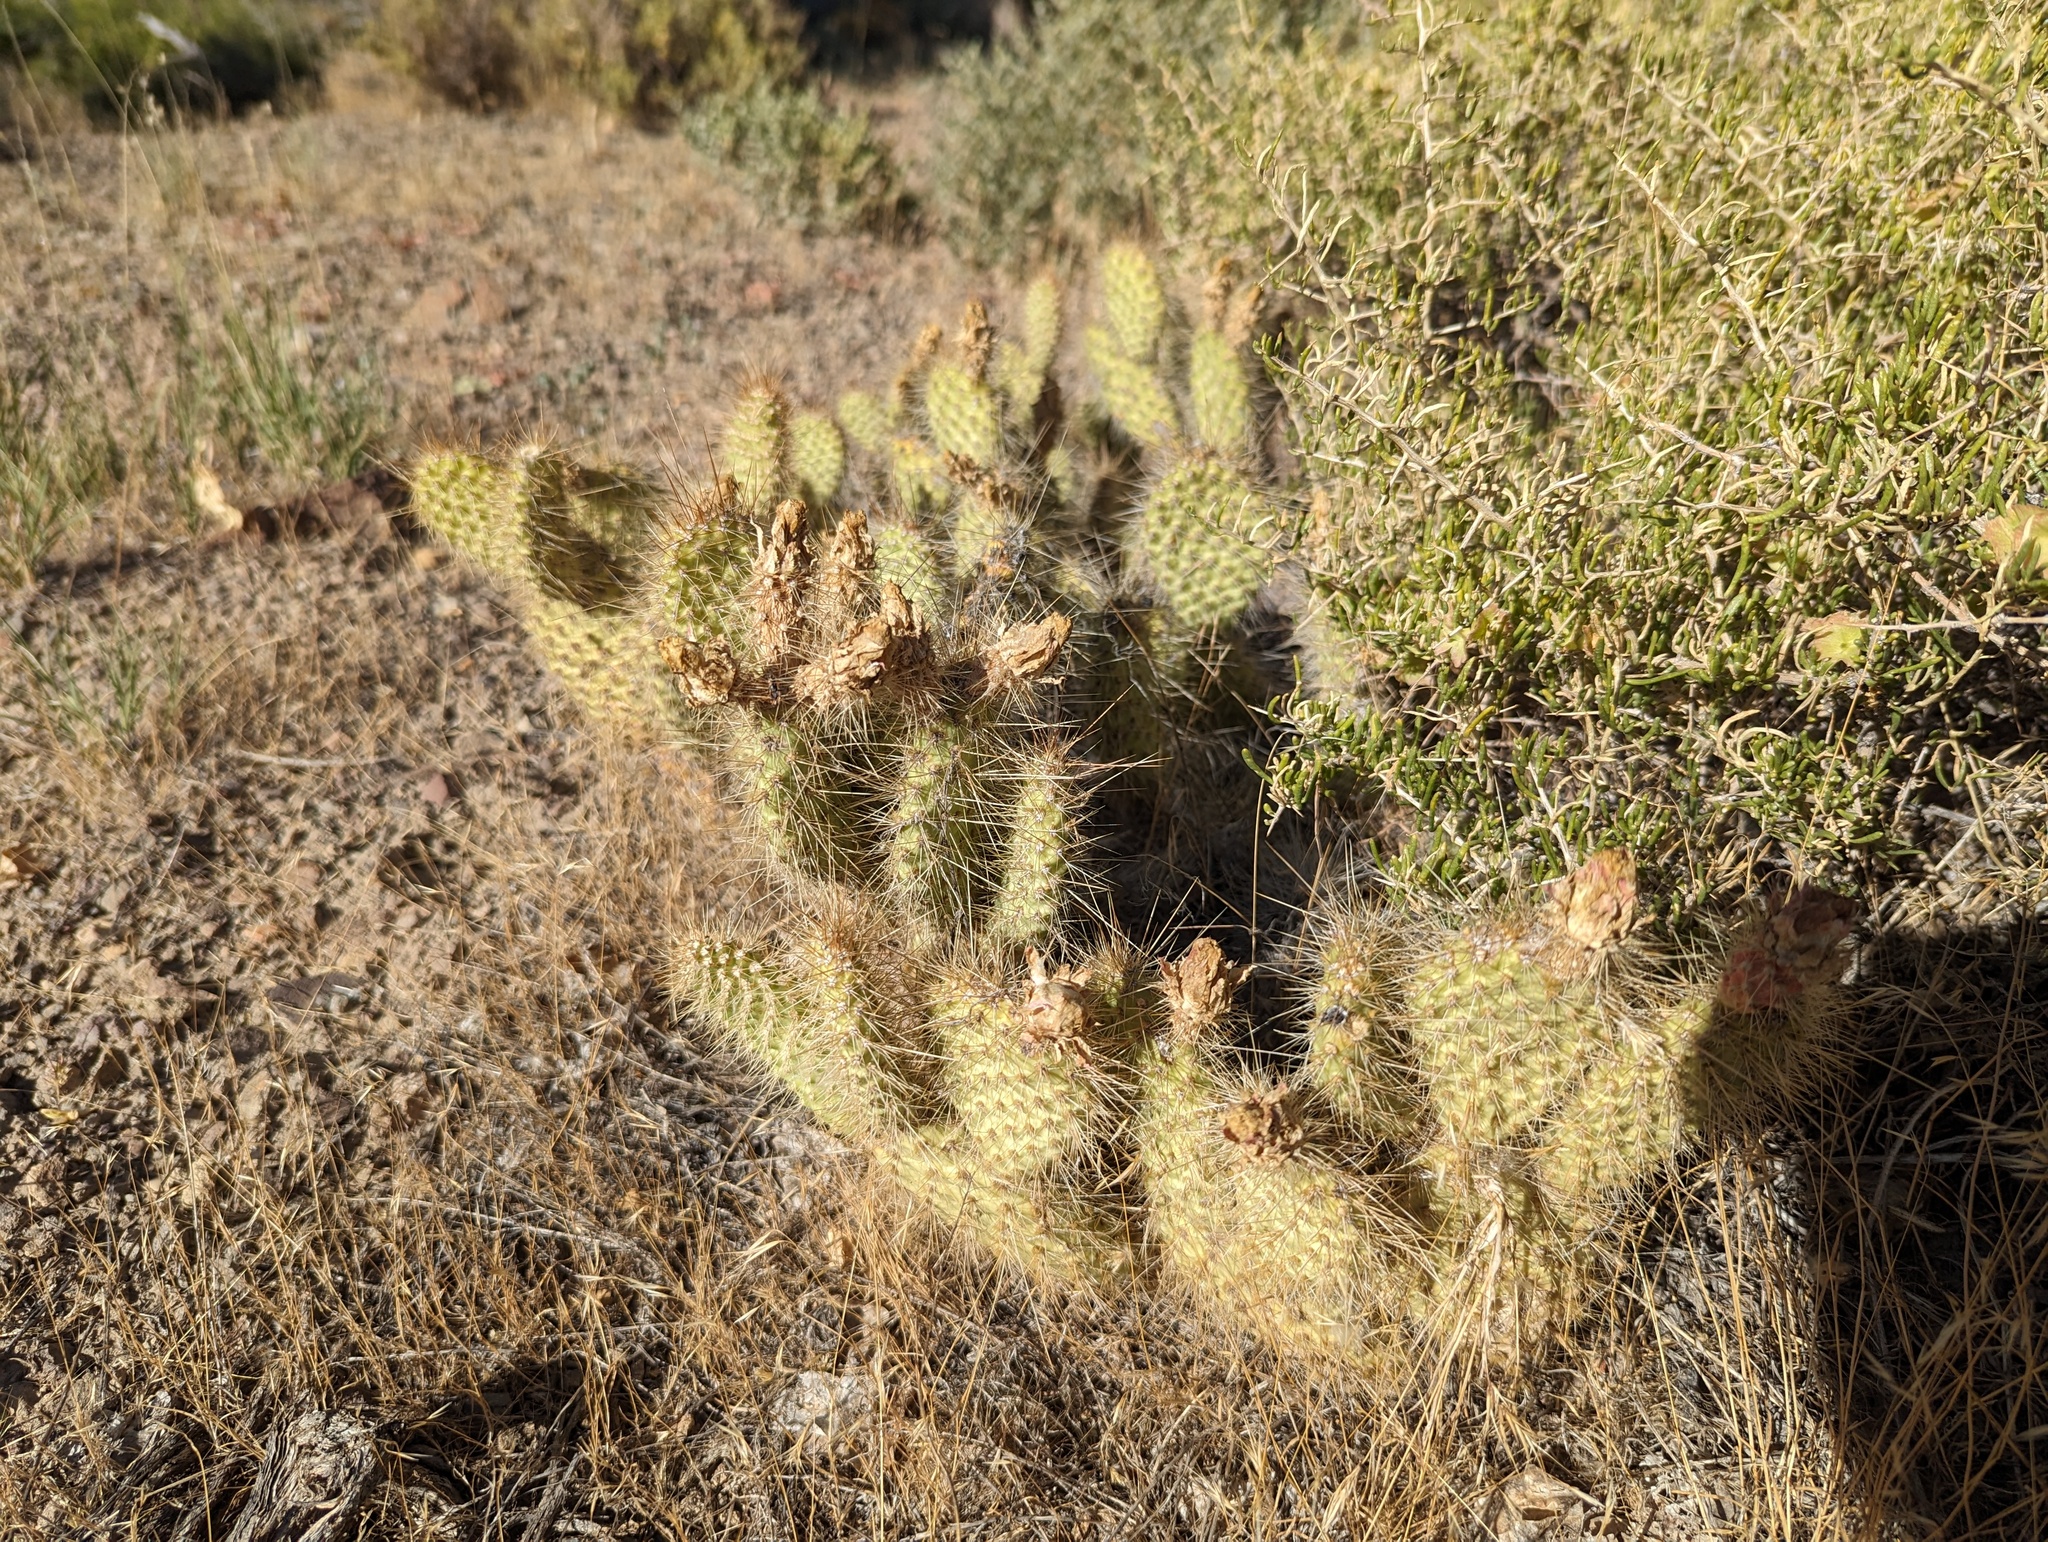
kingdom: Plantae
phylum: Tracheophyta
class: Magnoliopsida
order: Caryophyllales
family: Cactaceae
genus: Opuntia
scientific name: Opuntia polyacantha
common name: Plains prickly-pear
